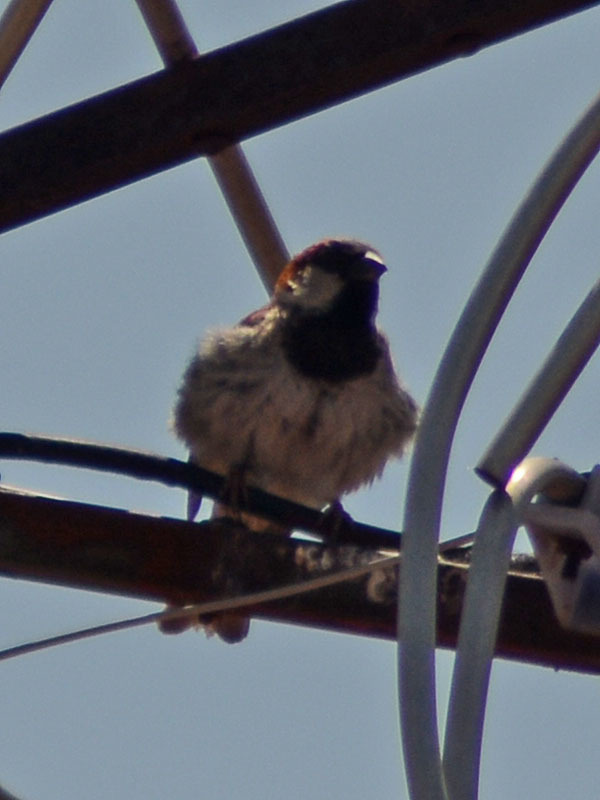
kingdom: Animalia
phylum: Chordata
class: Aves
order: Passeriformes
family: Passeridae
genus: Passer
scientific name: Passer domesticus
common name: House sparrow
